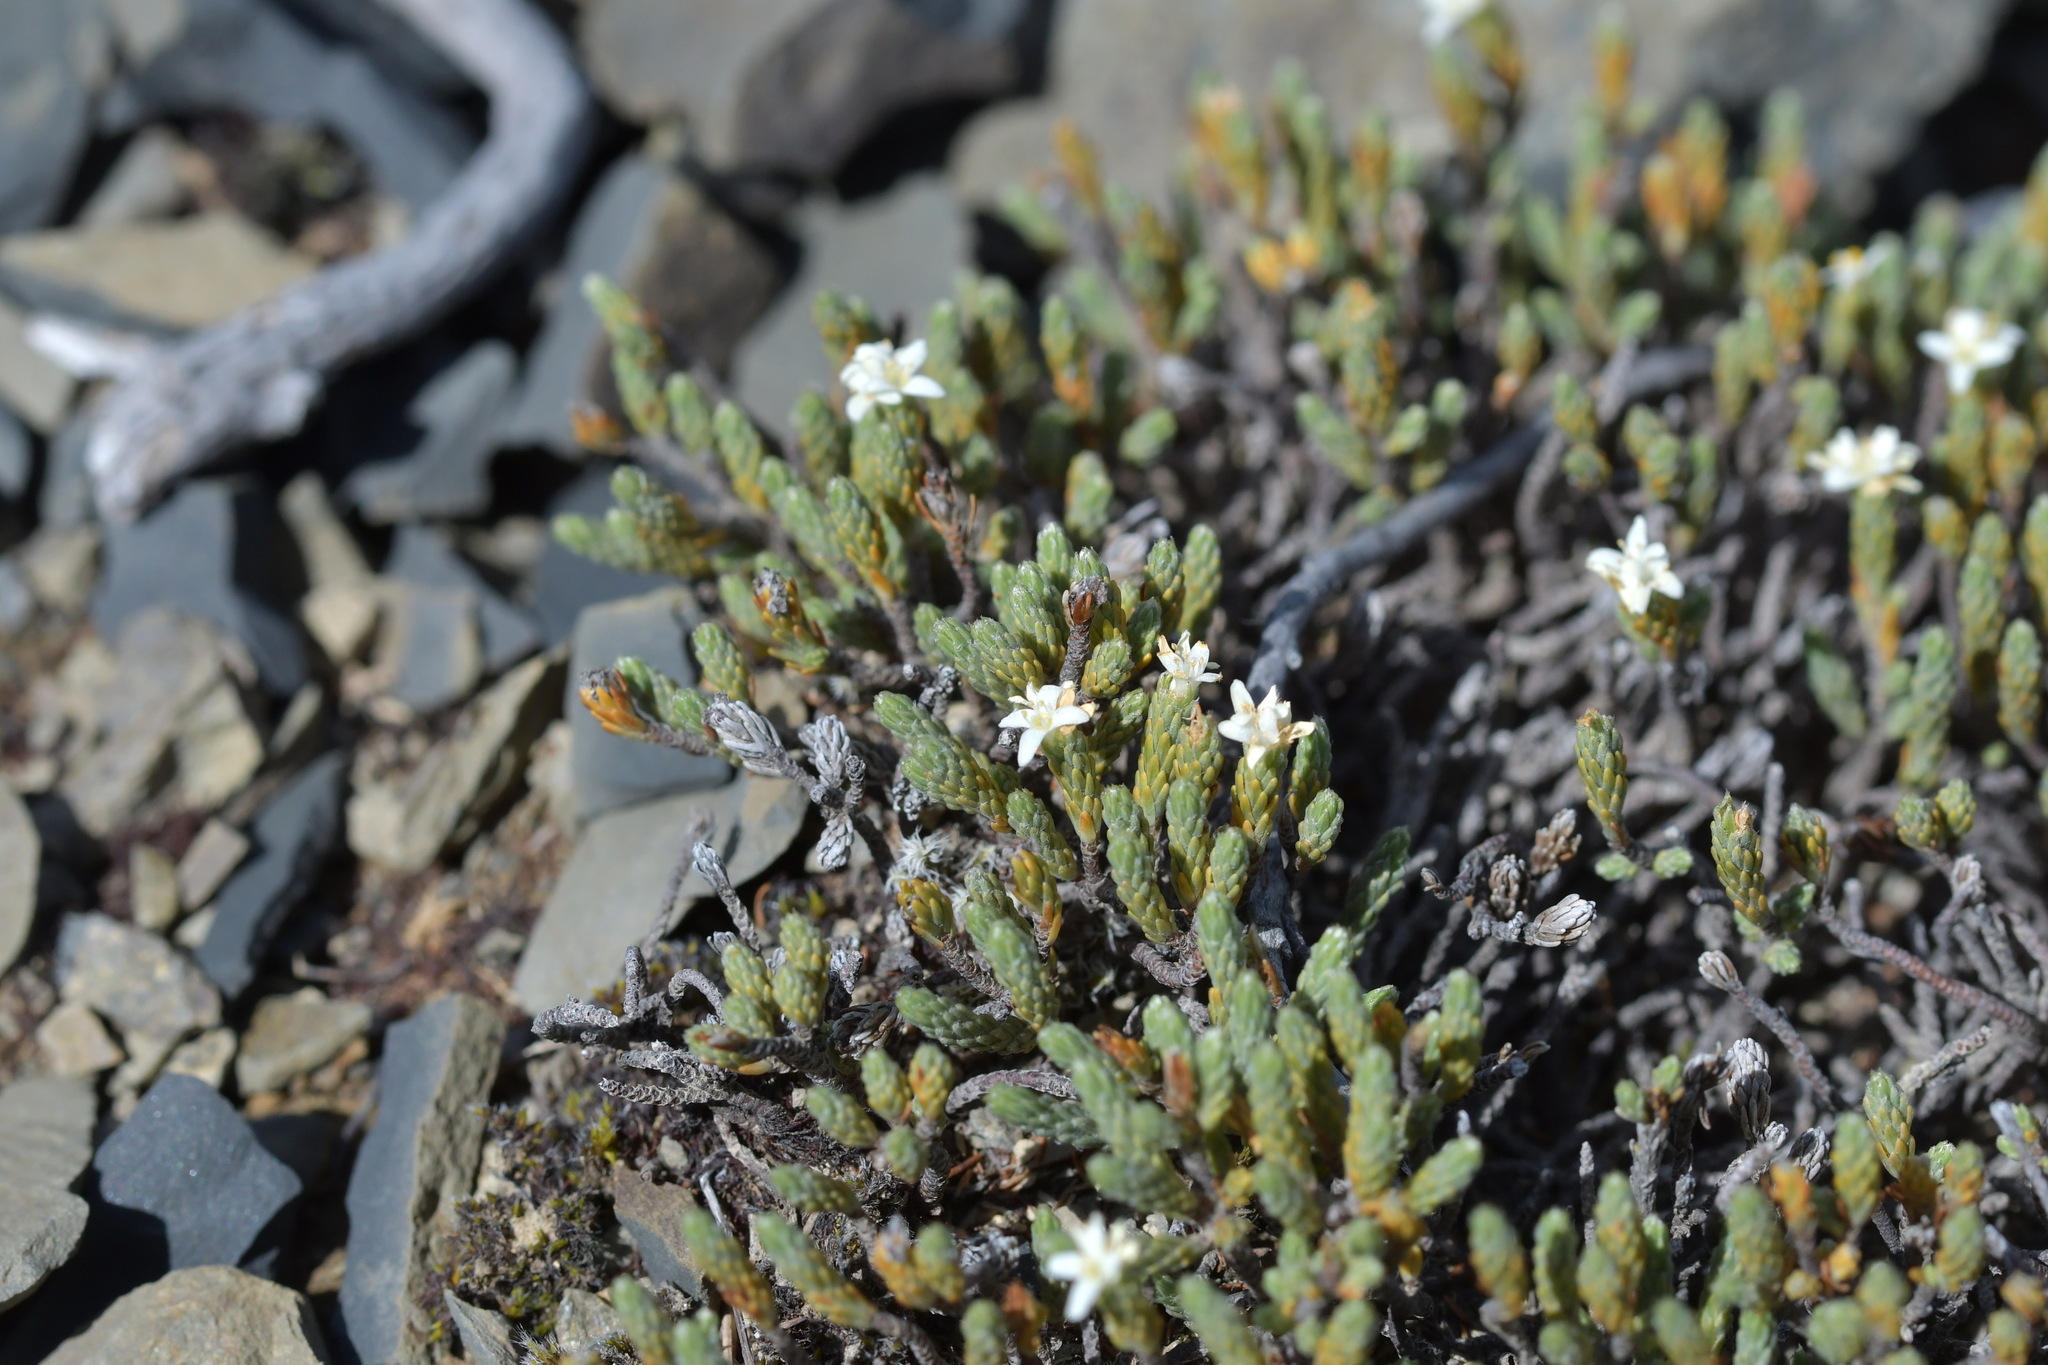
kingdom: Plantae
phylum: Tracheophyta
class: Magnoliopsida
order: Malvales
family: Thymelaeaceae
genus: Kelleria
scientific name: Kelleria dieffenbachii
